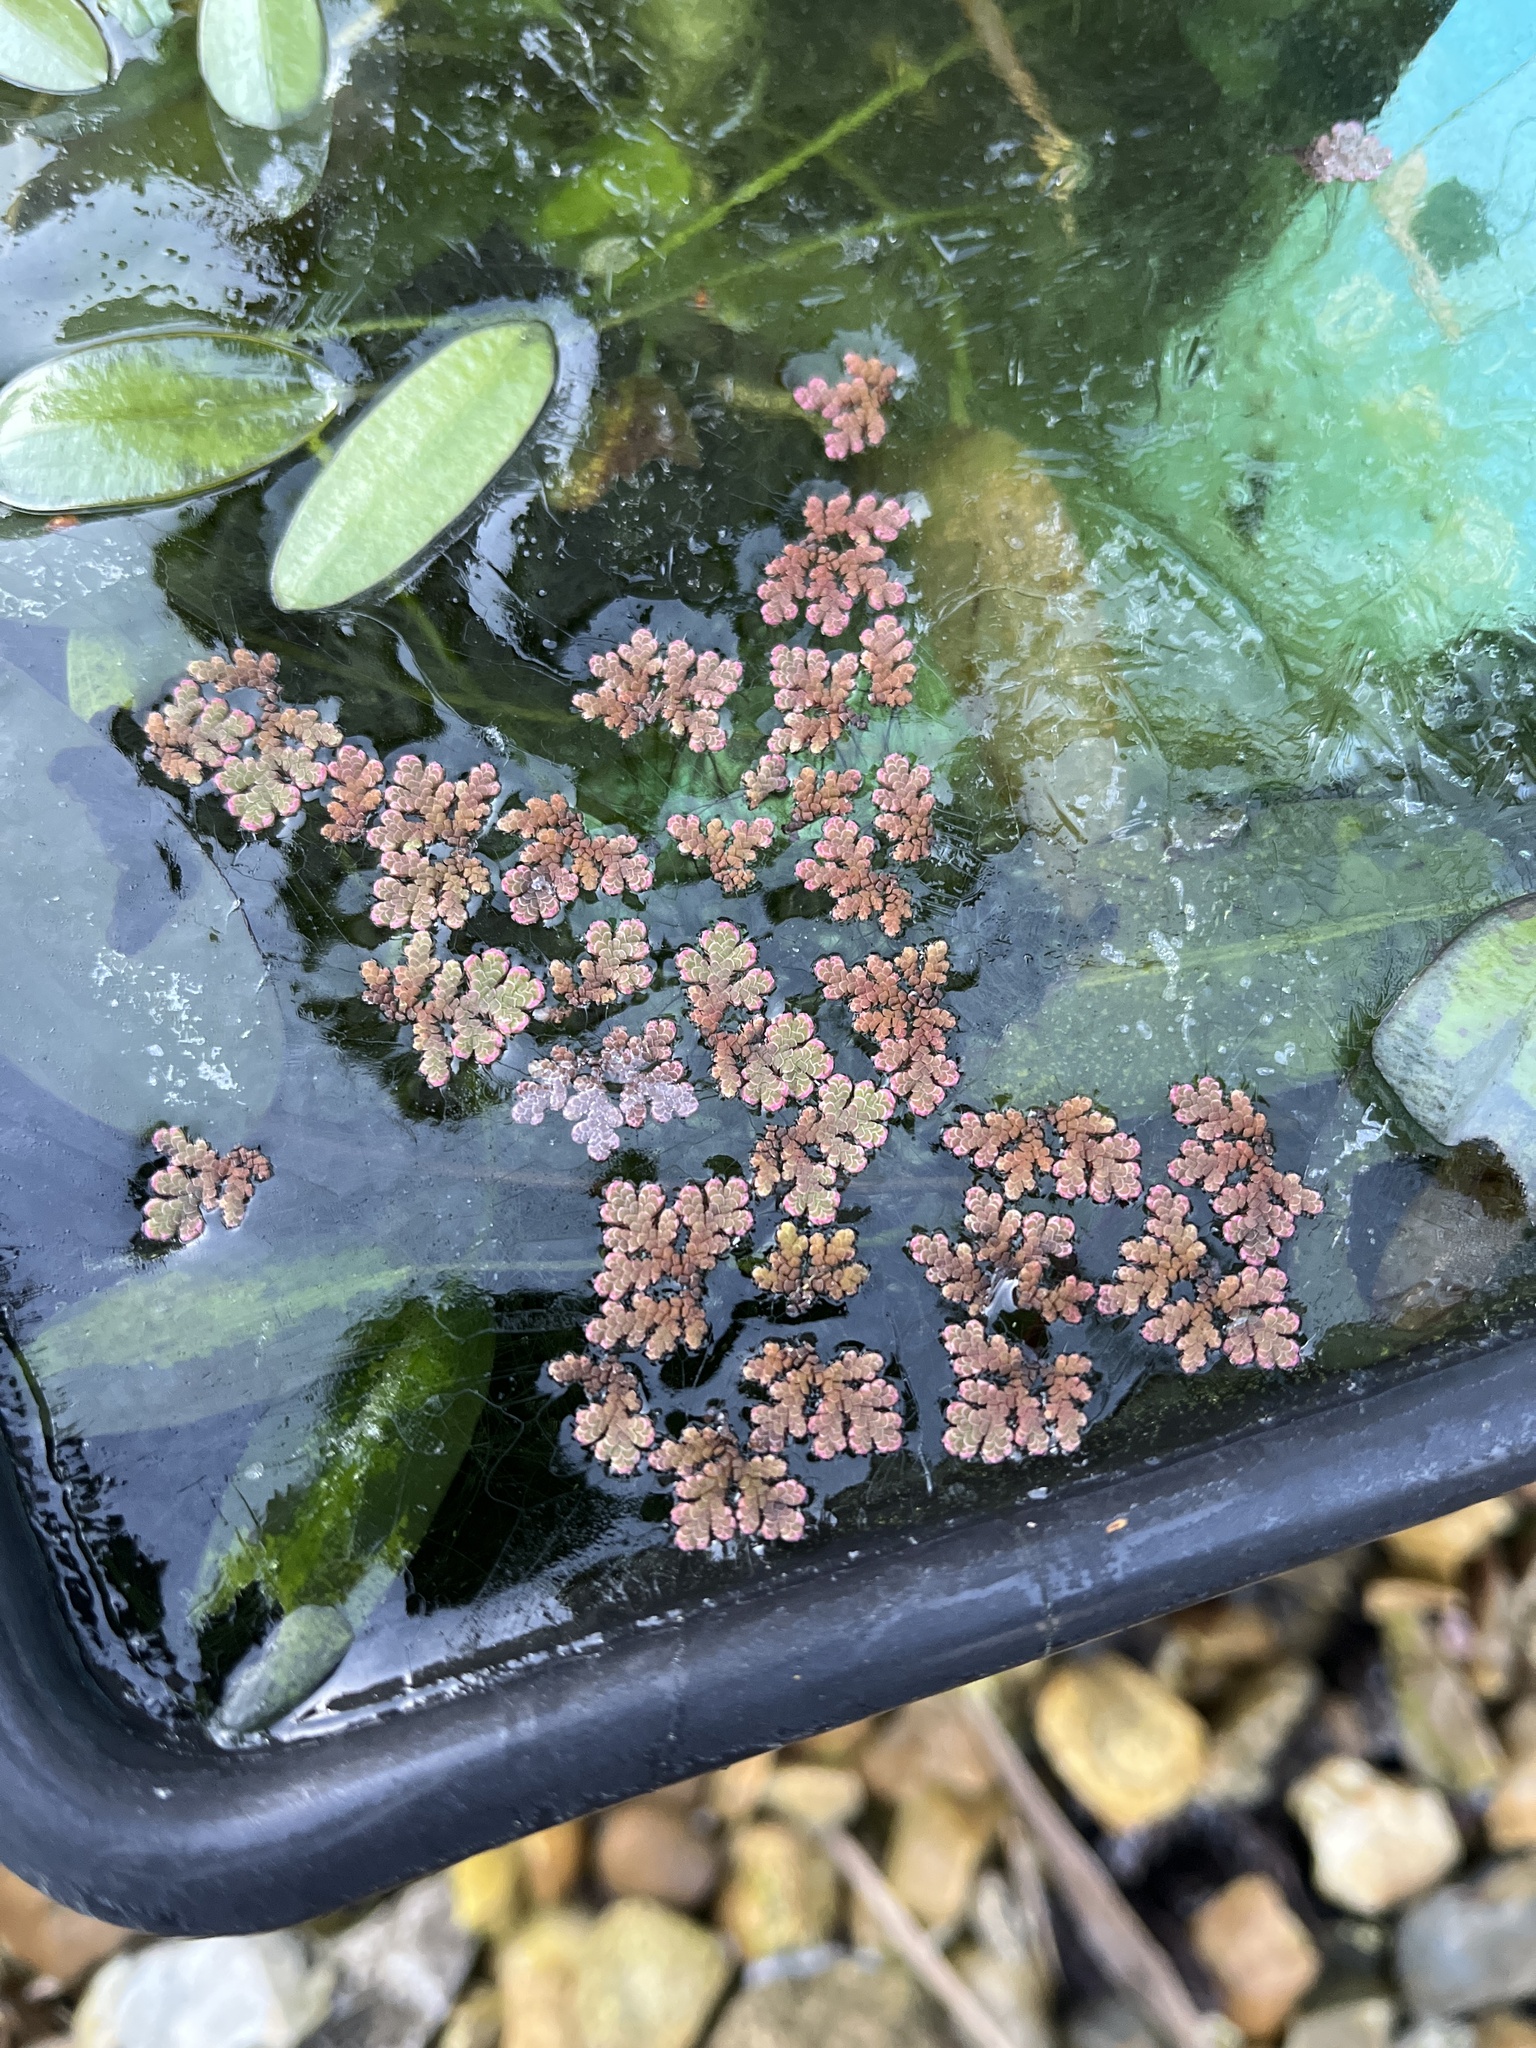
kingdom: Plantae
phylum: Tracheophyta
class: Polypodiopsida
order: Salviniales
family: Salviniaceae
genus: Azolla
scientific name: Azolla filiculoides
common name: Water fern
